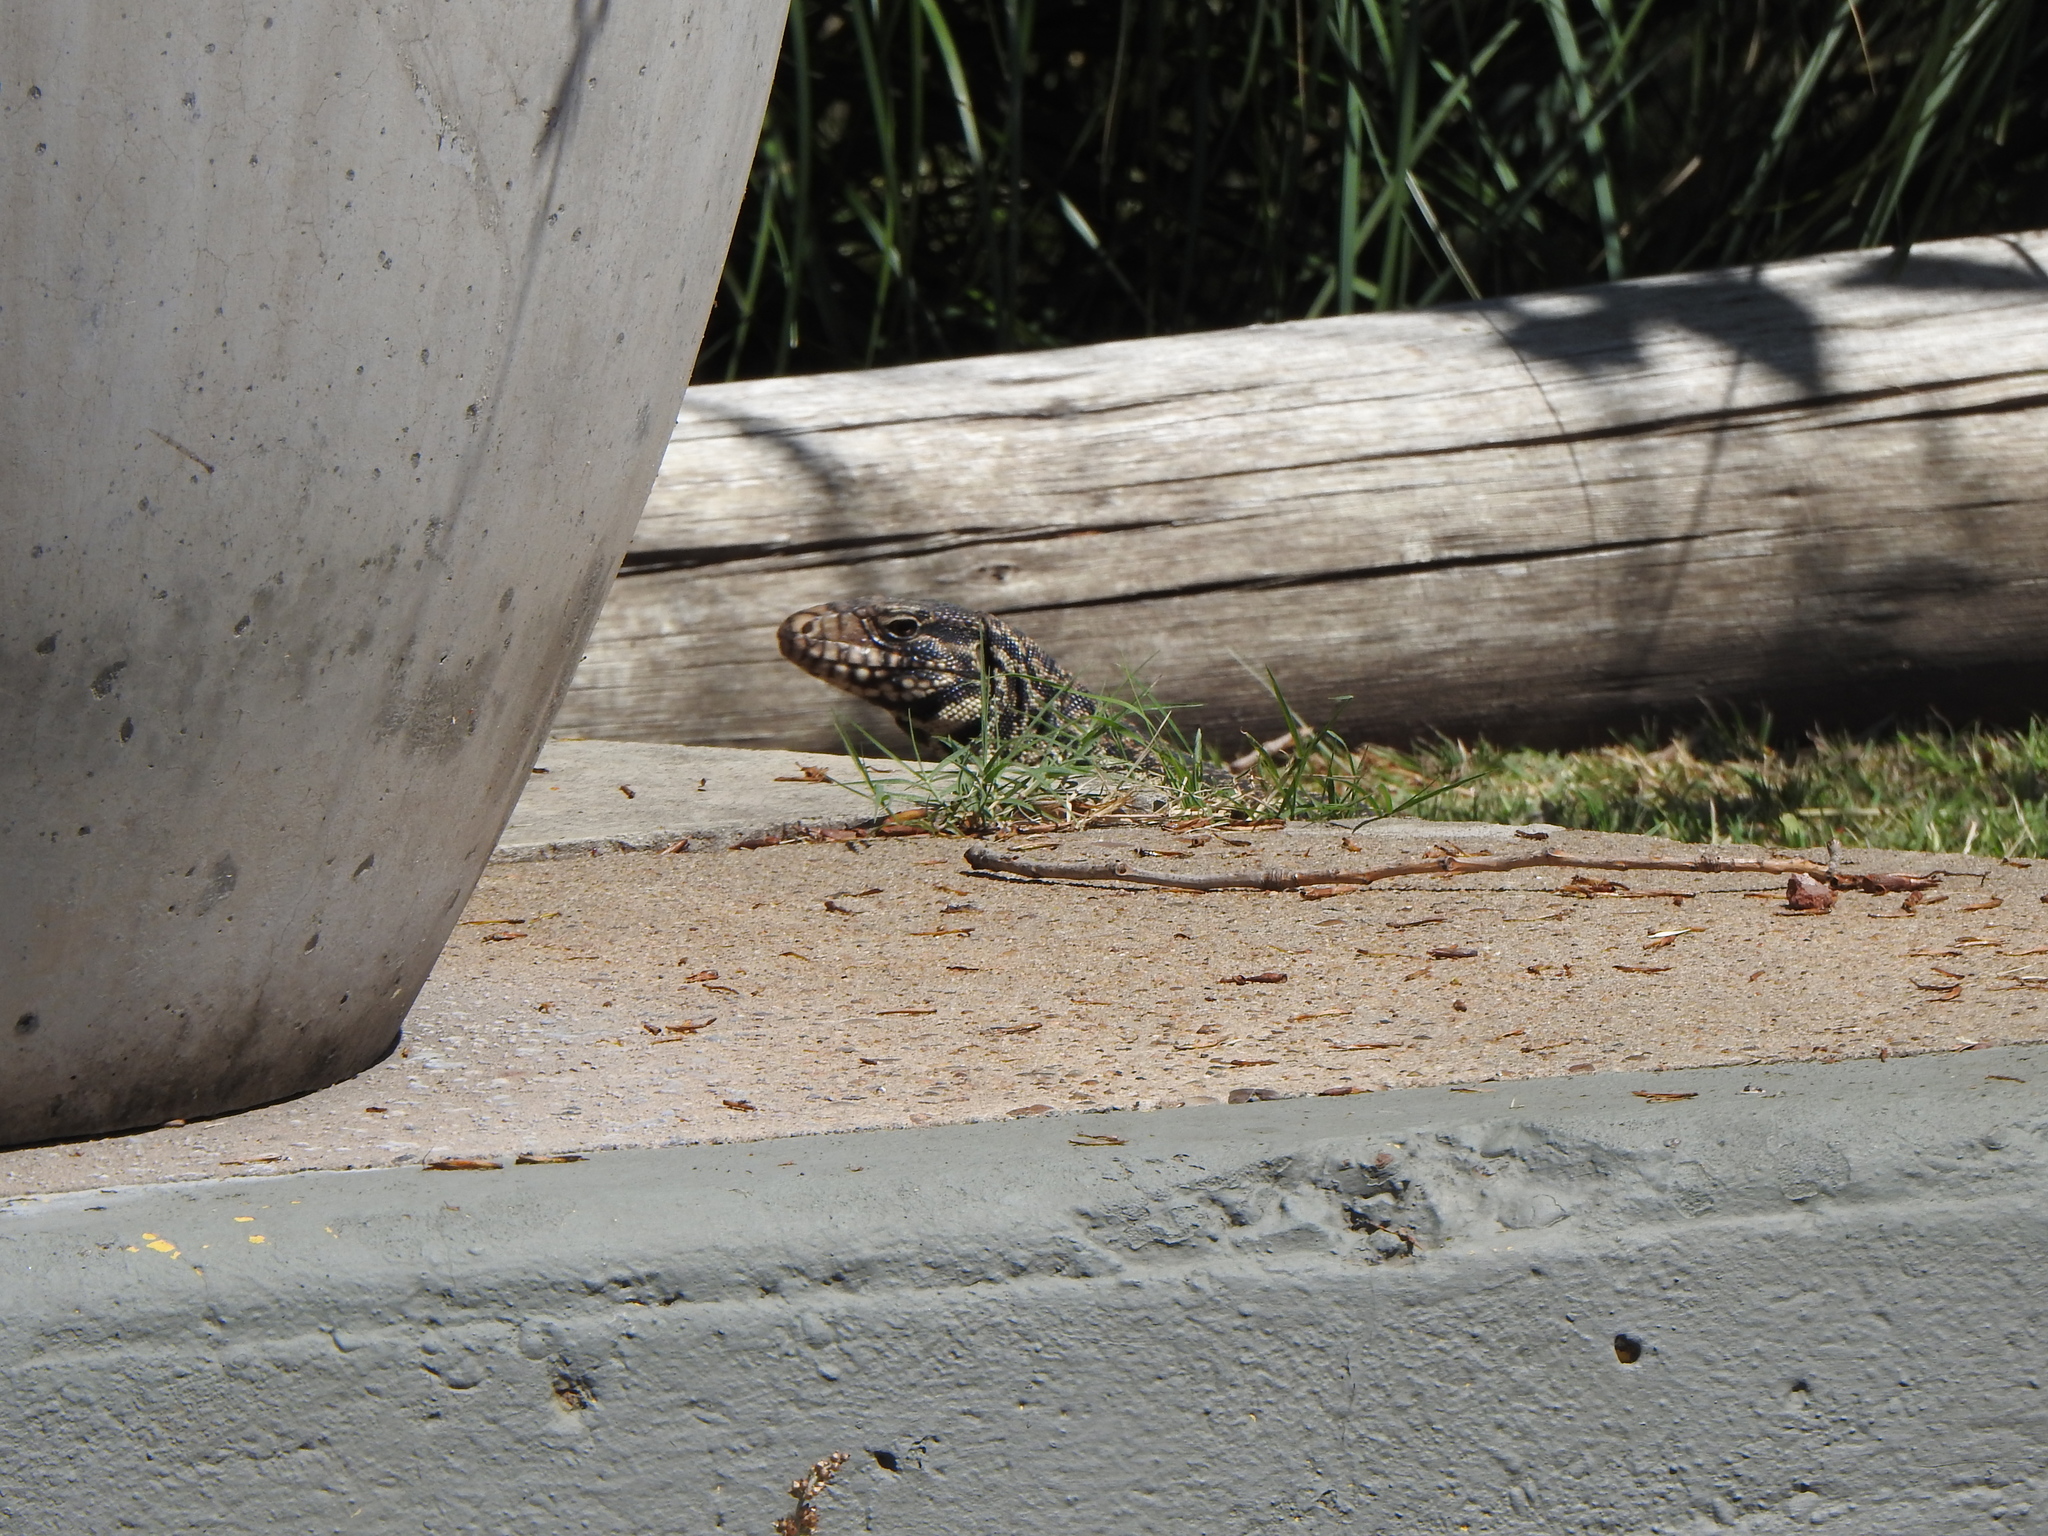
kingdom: Animalia
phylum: Chordata
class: Squamata
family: Teiidae
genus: Salvator
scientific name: Salvator merianae
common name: Argentine black and white tegu
